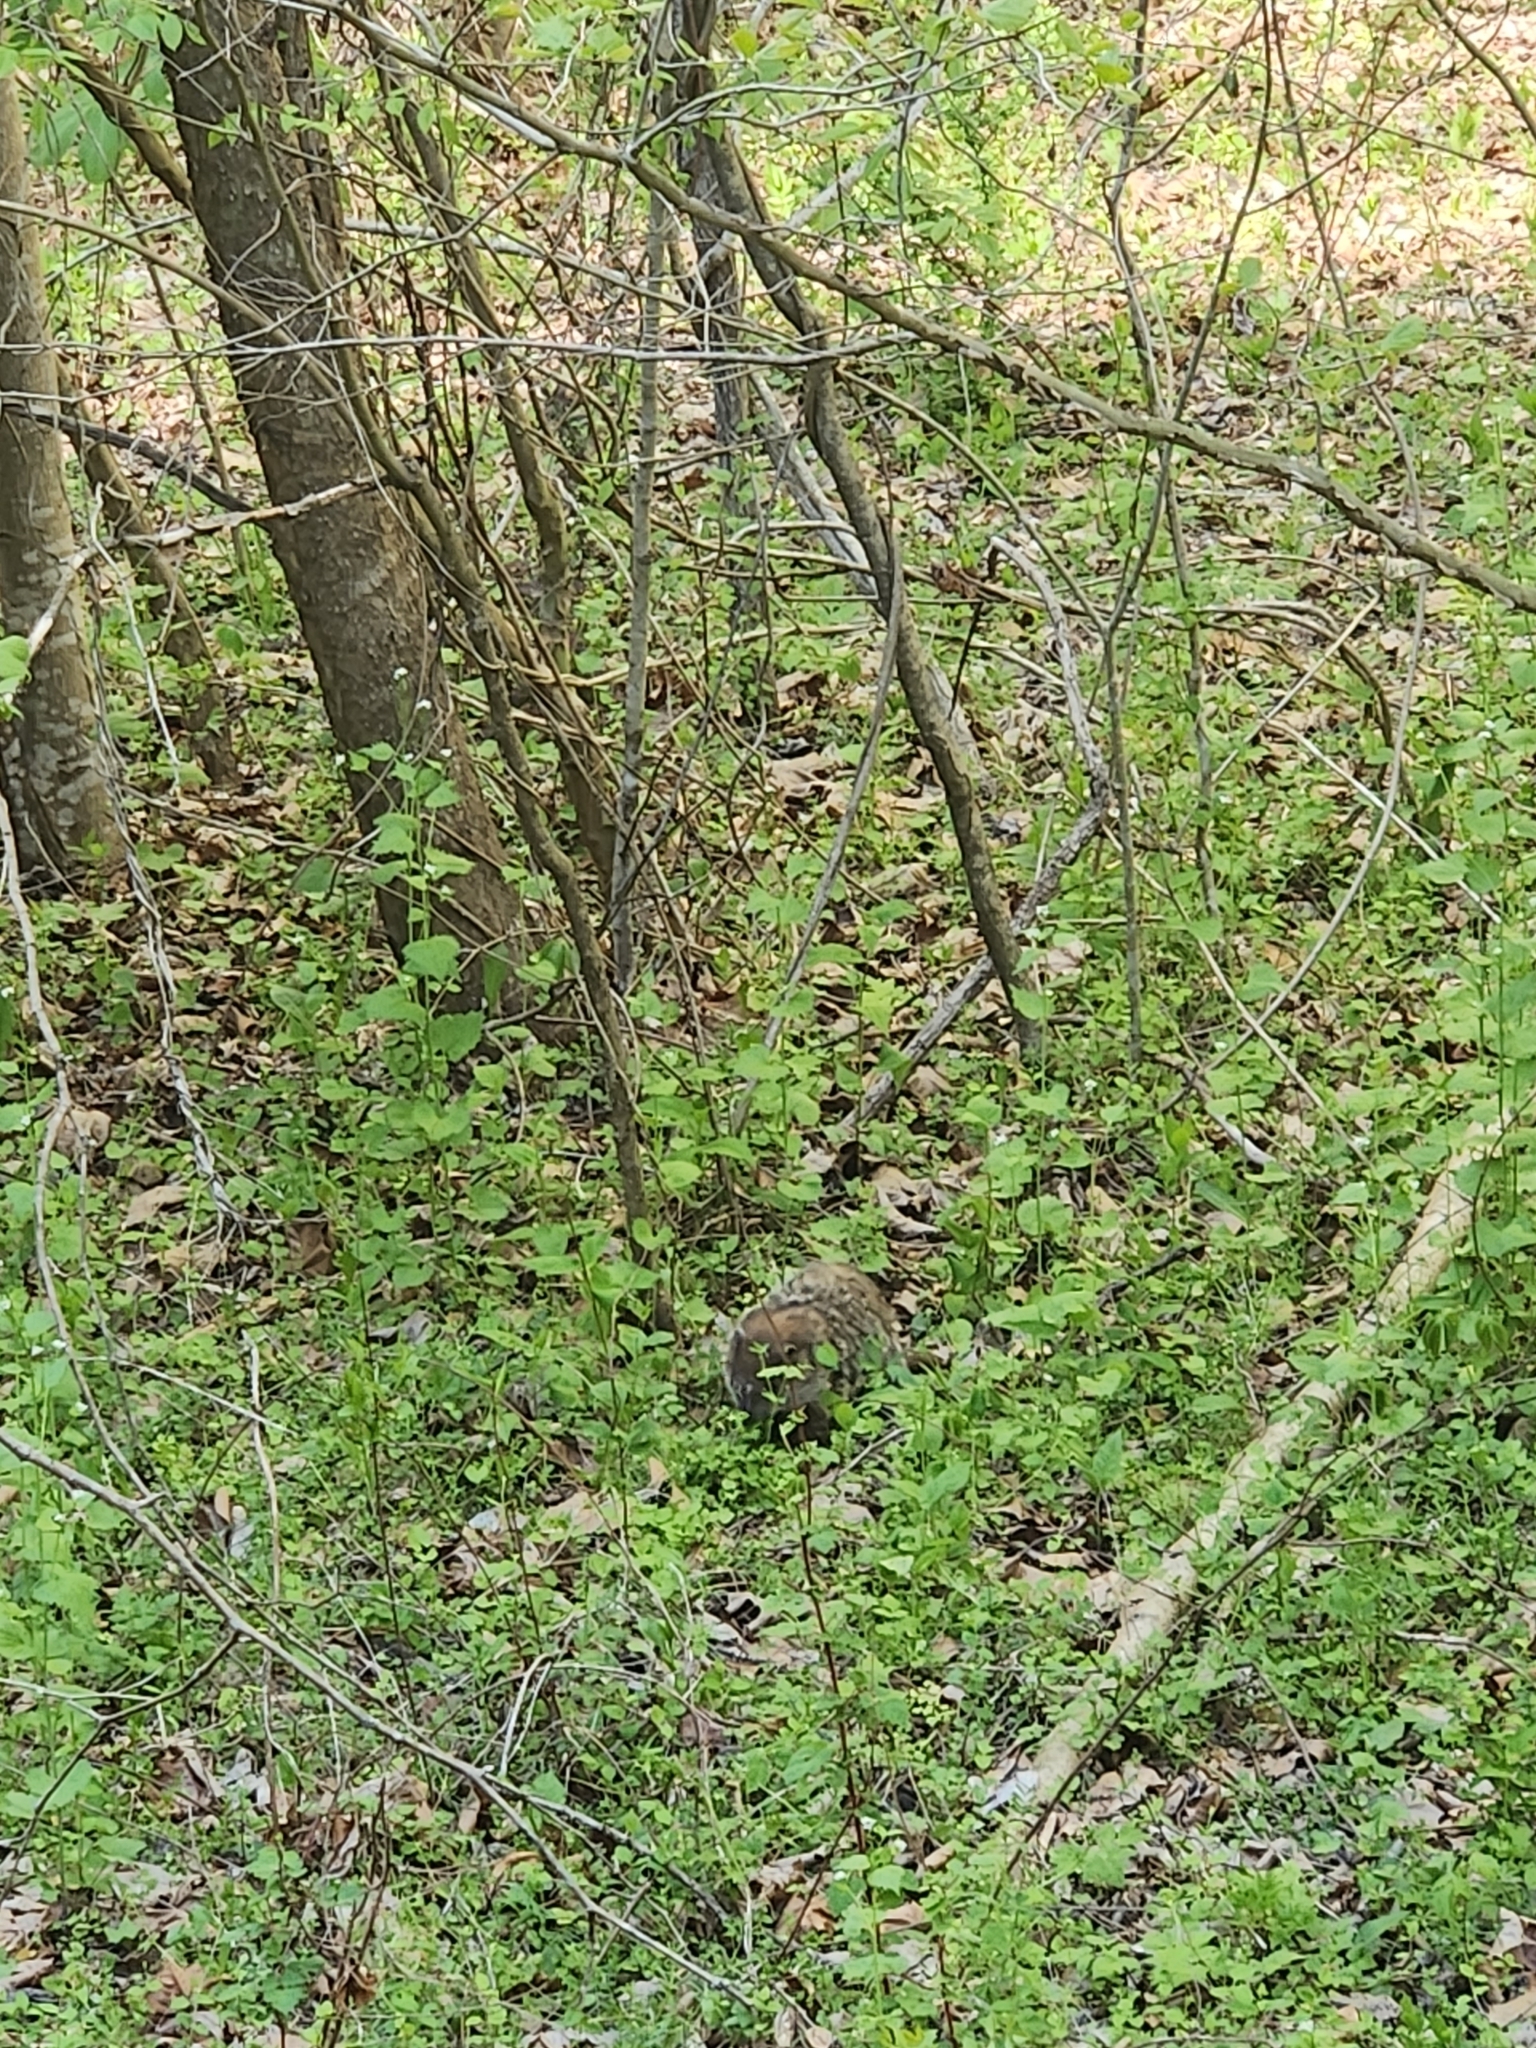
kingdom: Animalia
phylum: Chordata
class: Mammalia
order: Rodentia
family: Sciuridae
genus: Marmota
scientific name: Marmota monax
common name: Groundhog
